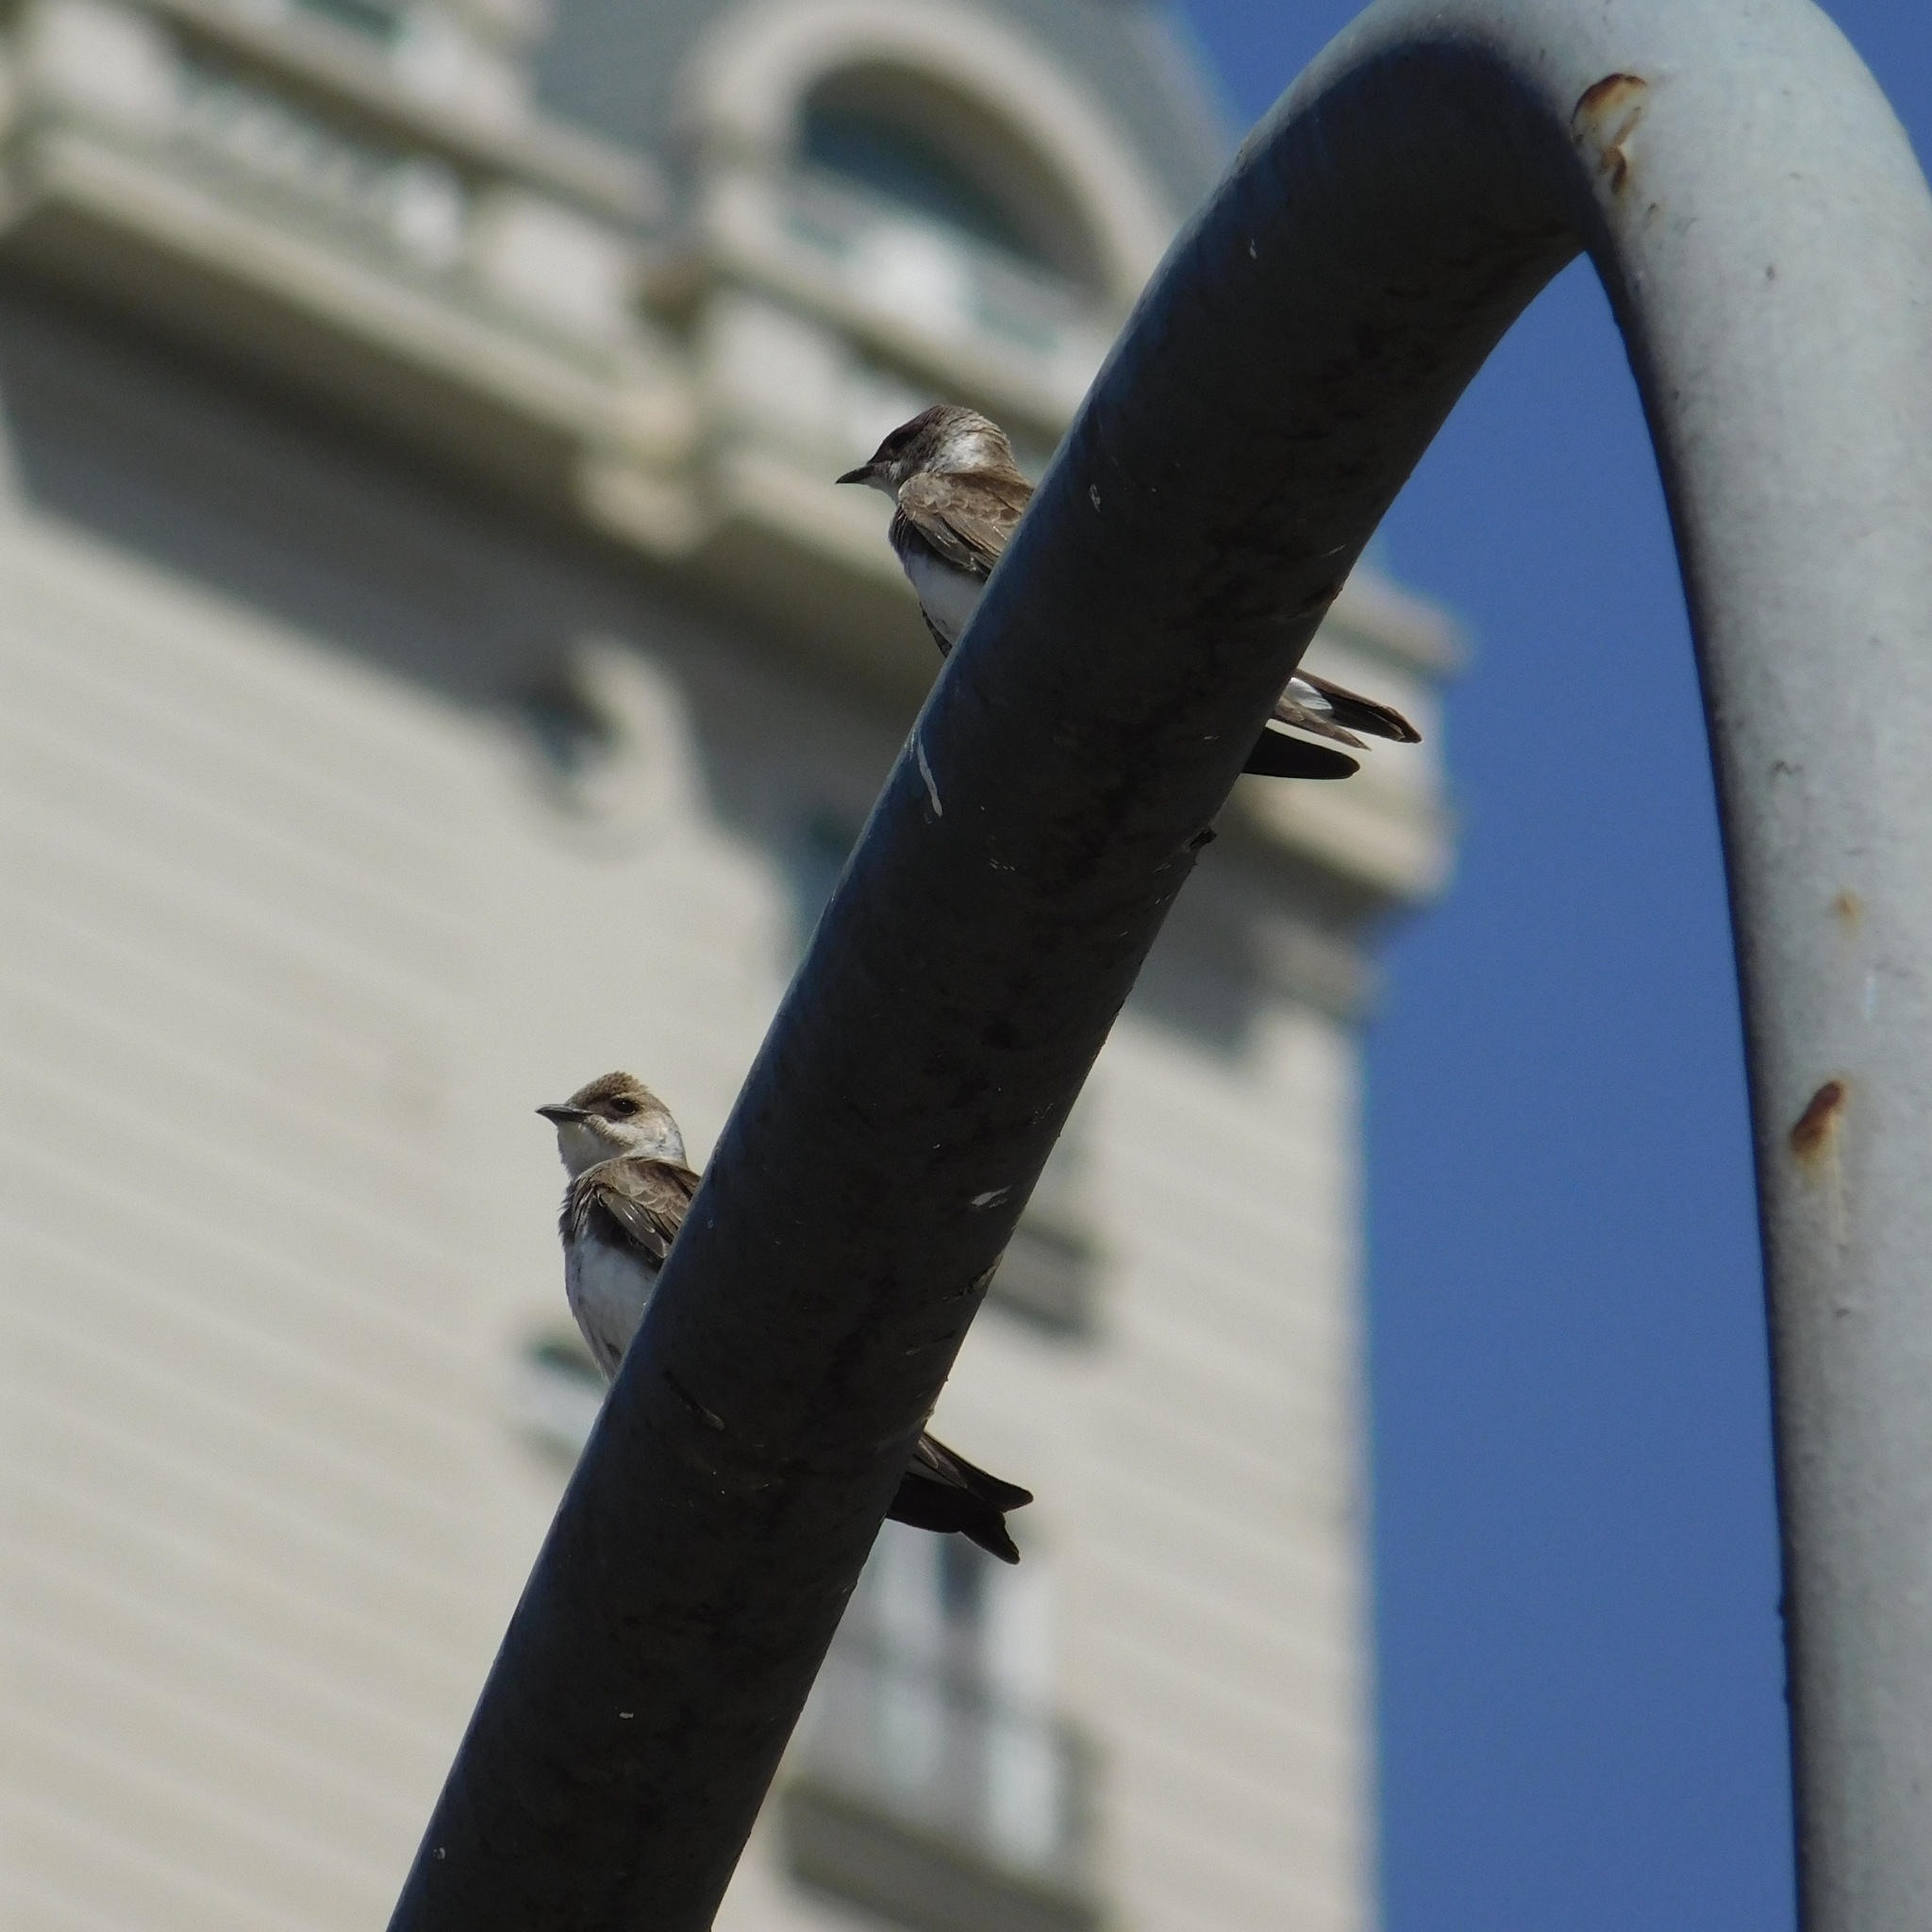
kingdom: Animalia
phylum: Chordata
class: Aves
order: Passeriformes
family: Hirundinidae
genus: Progne
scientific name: Progne tapera
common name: Brown-chested martin
